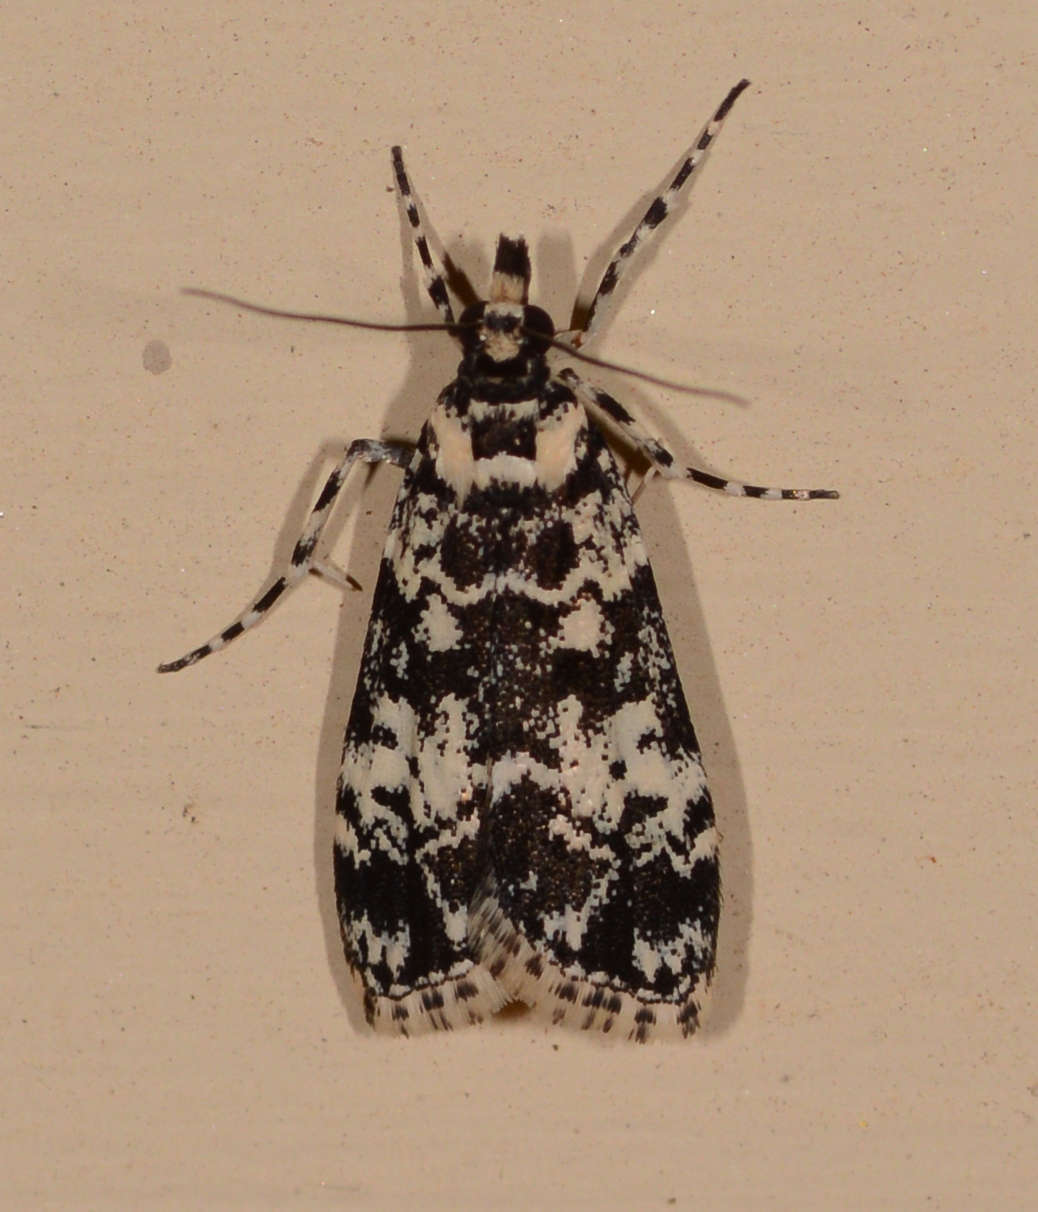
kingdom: Animalia
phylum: Arthropoda
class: Insecta
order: Lepidoptera
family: Crambidae
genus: Scoparia
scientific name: Scoparia exhibitalis
